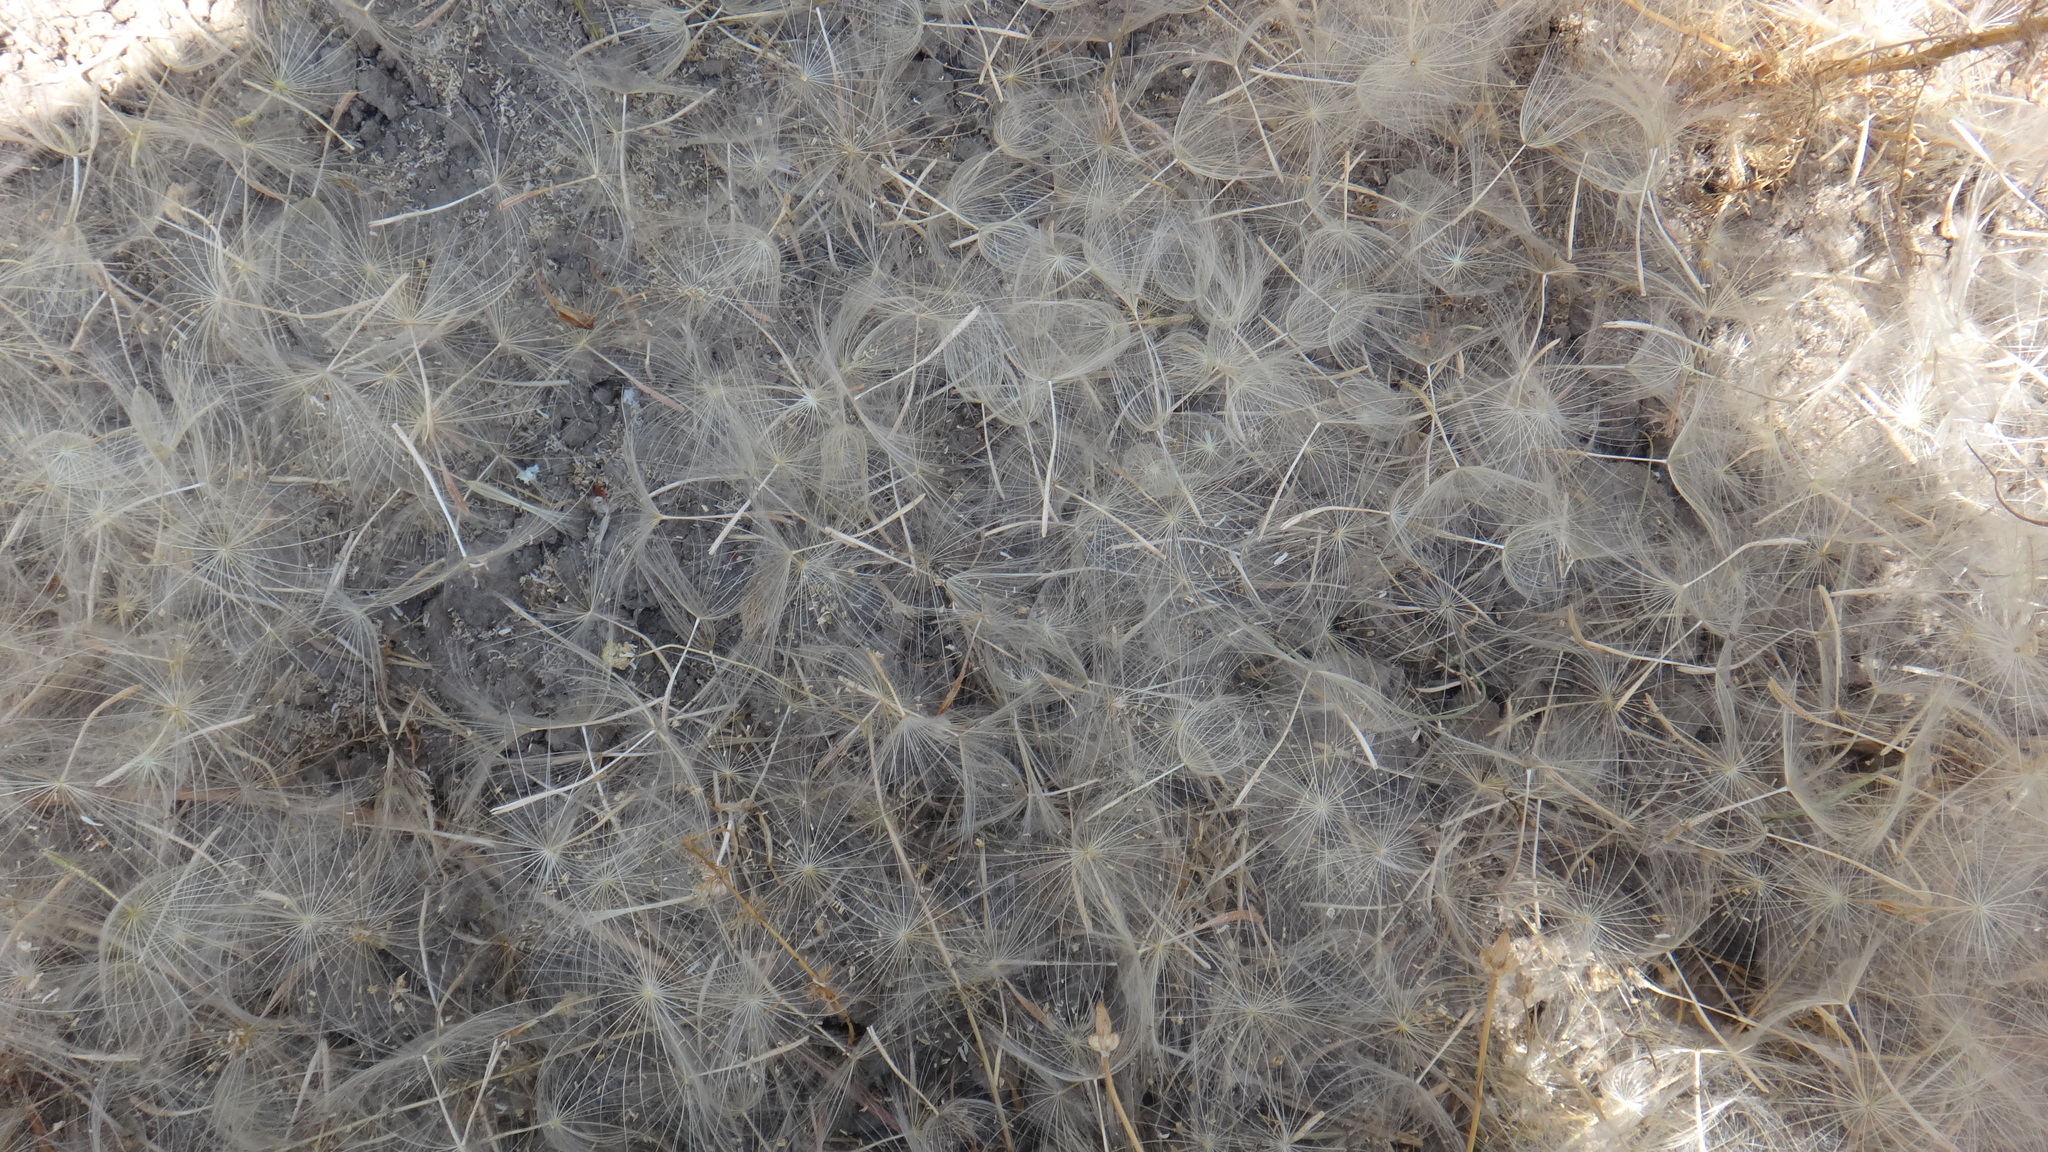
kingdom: Plantae
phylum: Tracheophyta
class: Magnoliopsida
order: Asterales
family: Asteraceae
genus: Tragopogon
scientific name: Tragopogon dubius
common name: Yellow salsify
